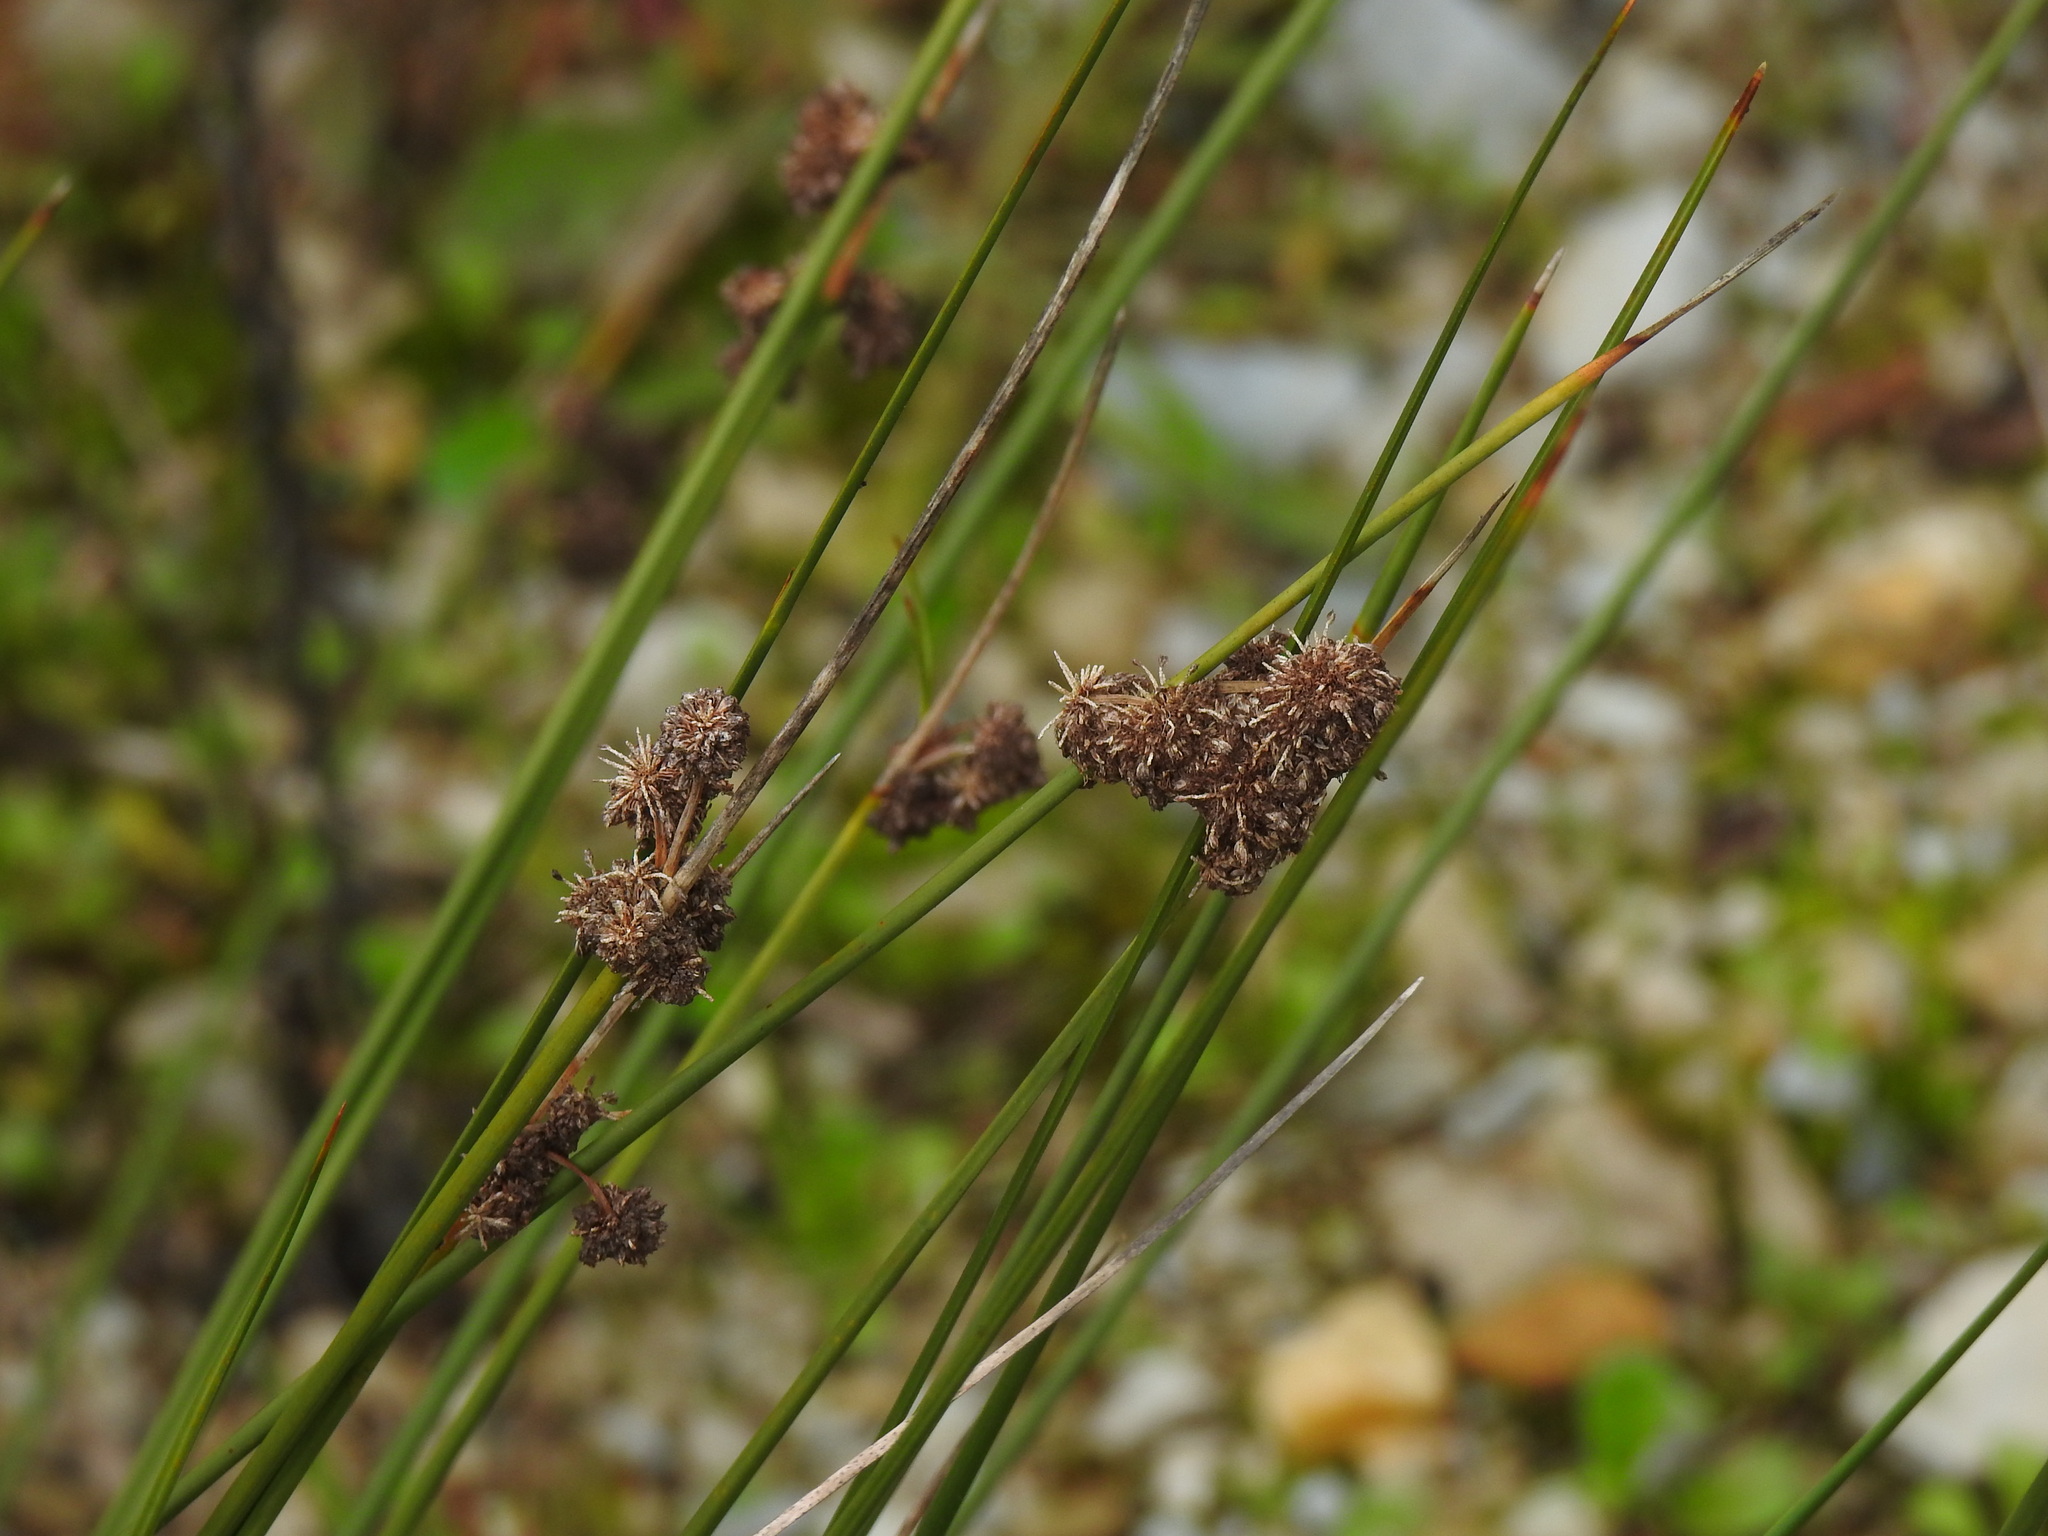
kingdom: Plantae
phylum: Tracheophyta
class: Liliopsida
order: Poales
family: Cyperaceae
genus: Scirpoides
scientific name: Scirpoides holoschoenus
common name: Round-headed club-rush
